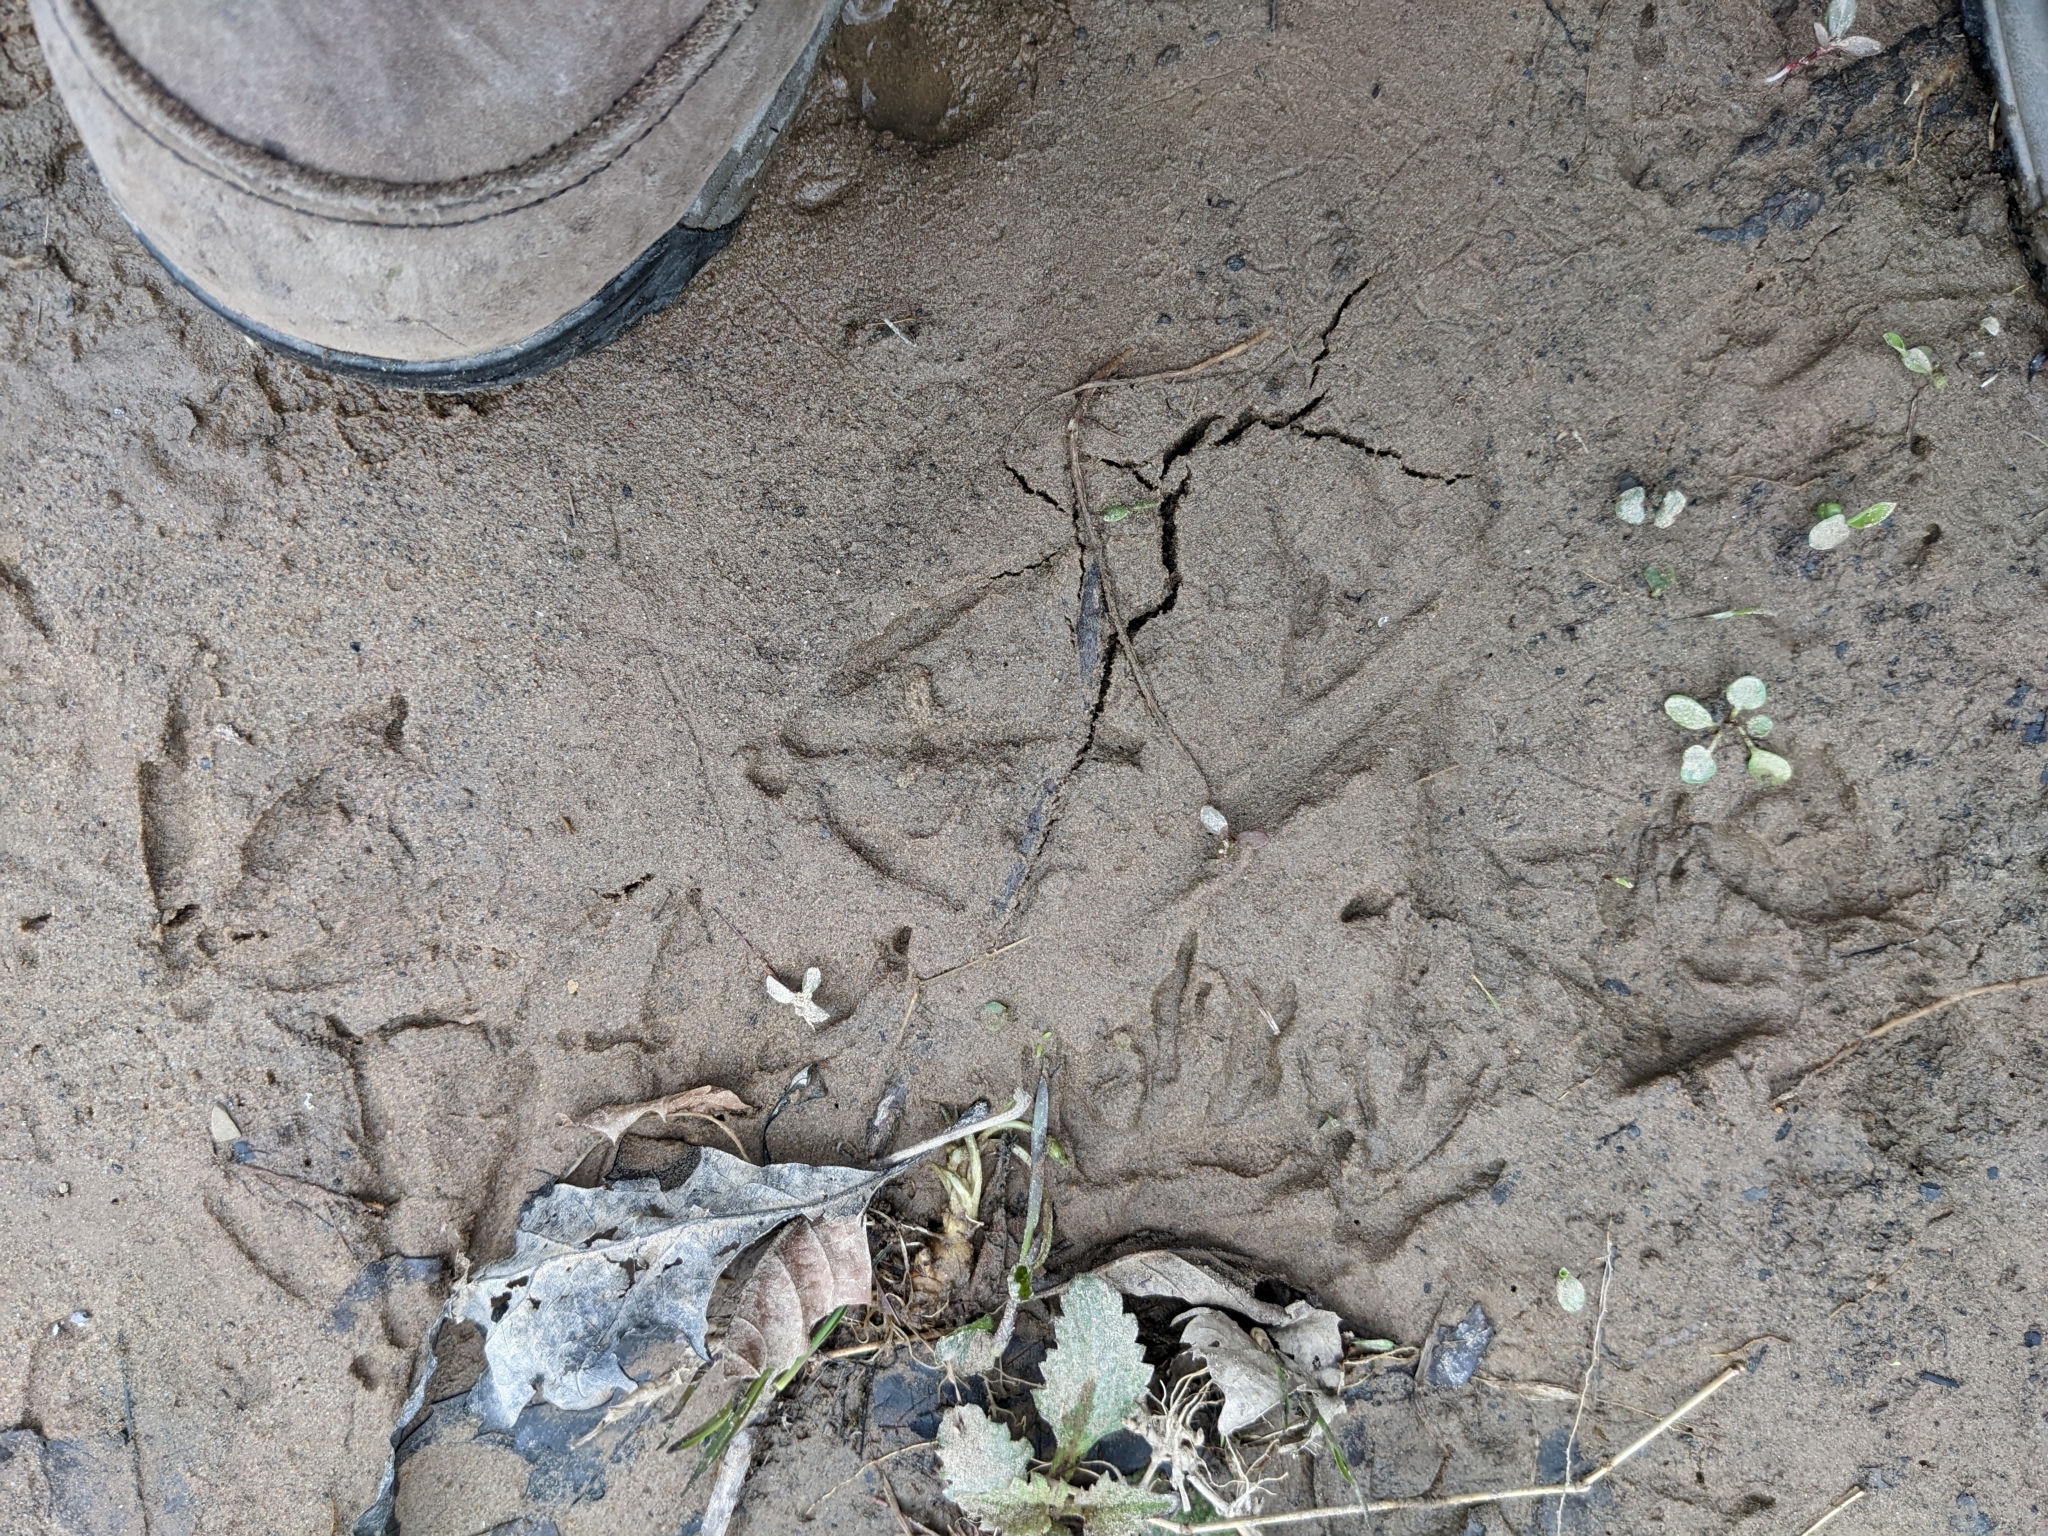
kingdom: Animalia
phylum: Chordata
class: Aves
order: Anseriformes
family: Anatidae
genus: Anas
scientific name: Anas platyrhynchos
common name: Mallard
